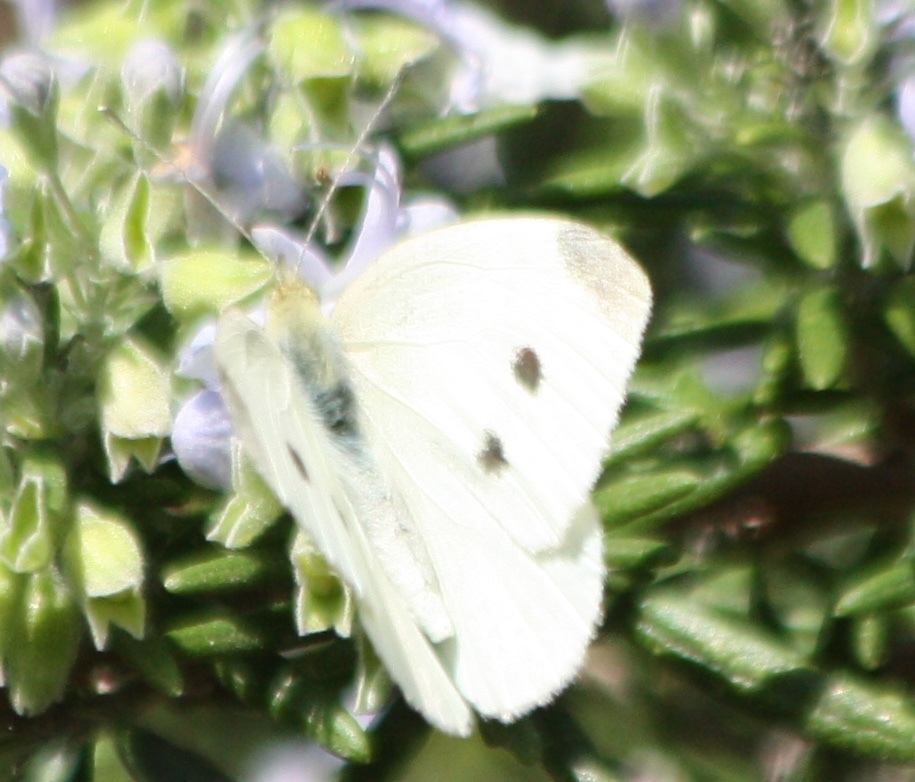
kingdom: Animalia
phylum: Arthropoda
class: Insecta
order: Lepidoptera
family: Pieridae
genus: Pieris
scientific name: Pieris rapae
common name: Small white
